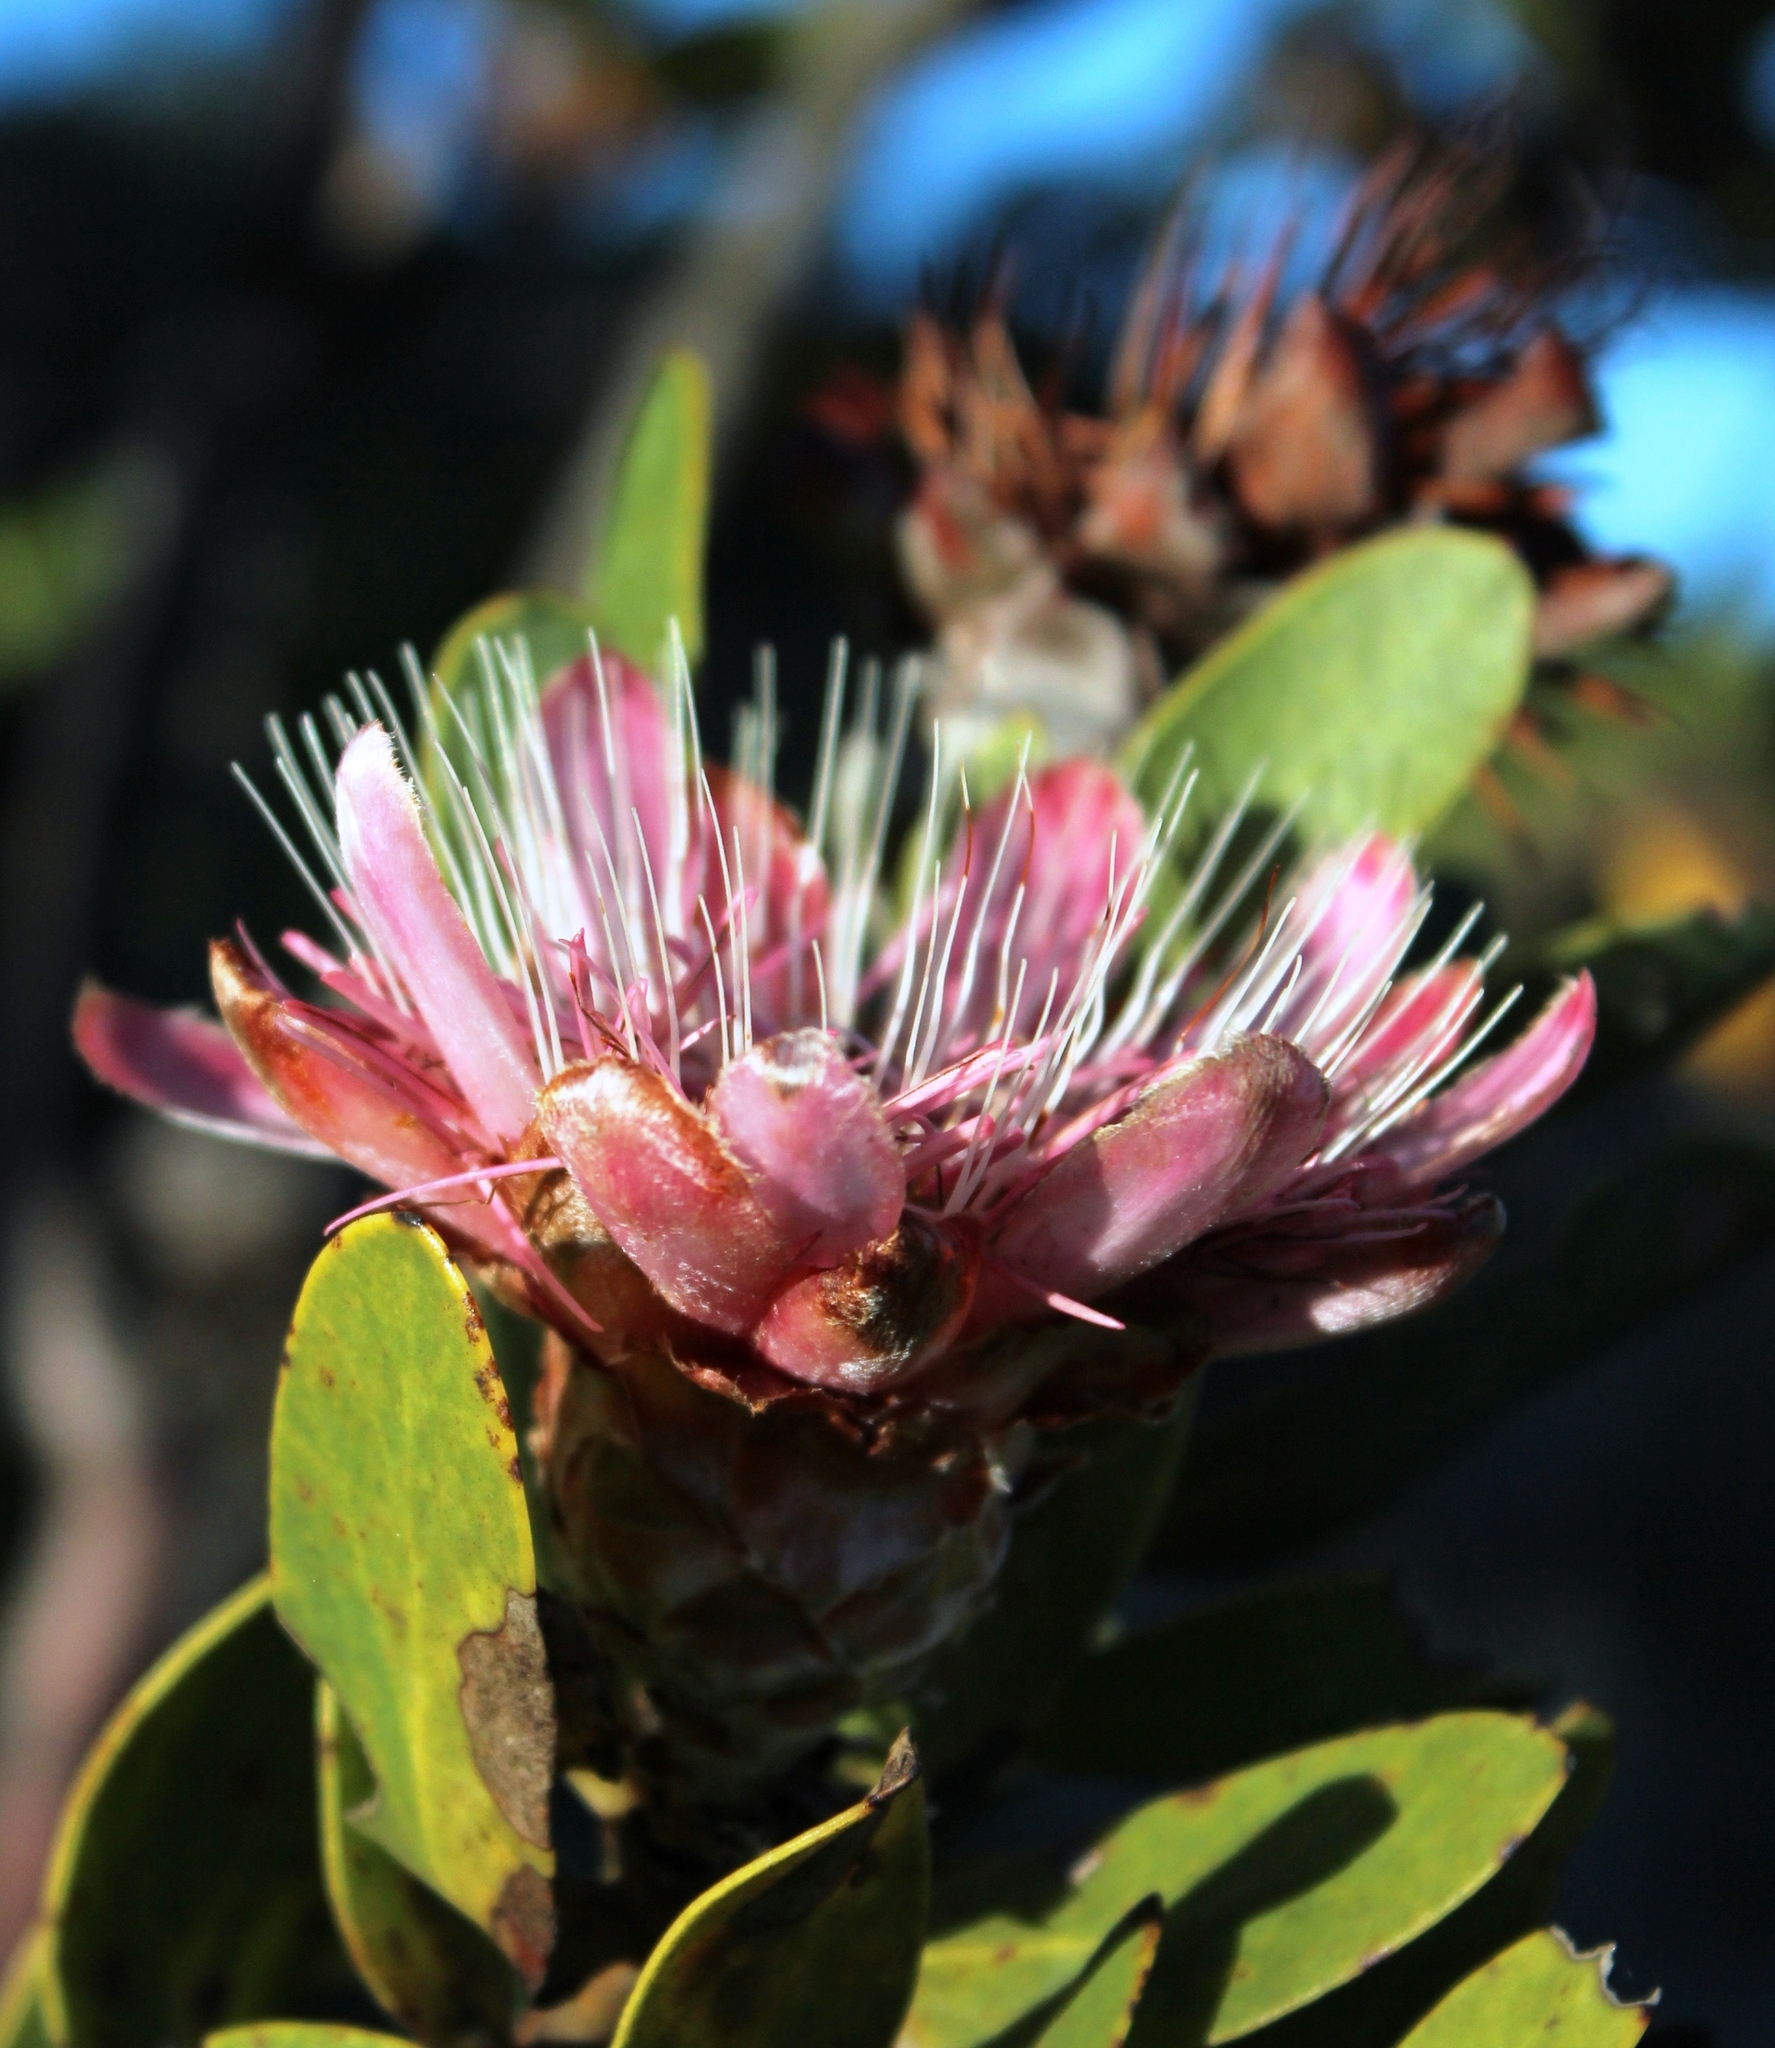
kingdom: Plantae
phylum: Tracheophyta
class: Magnoliopsida
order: Proteales
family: Proteaceae
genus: Protea
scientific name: Protea punctata
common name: Water sugarbush
